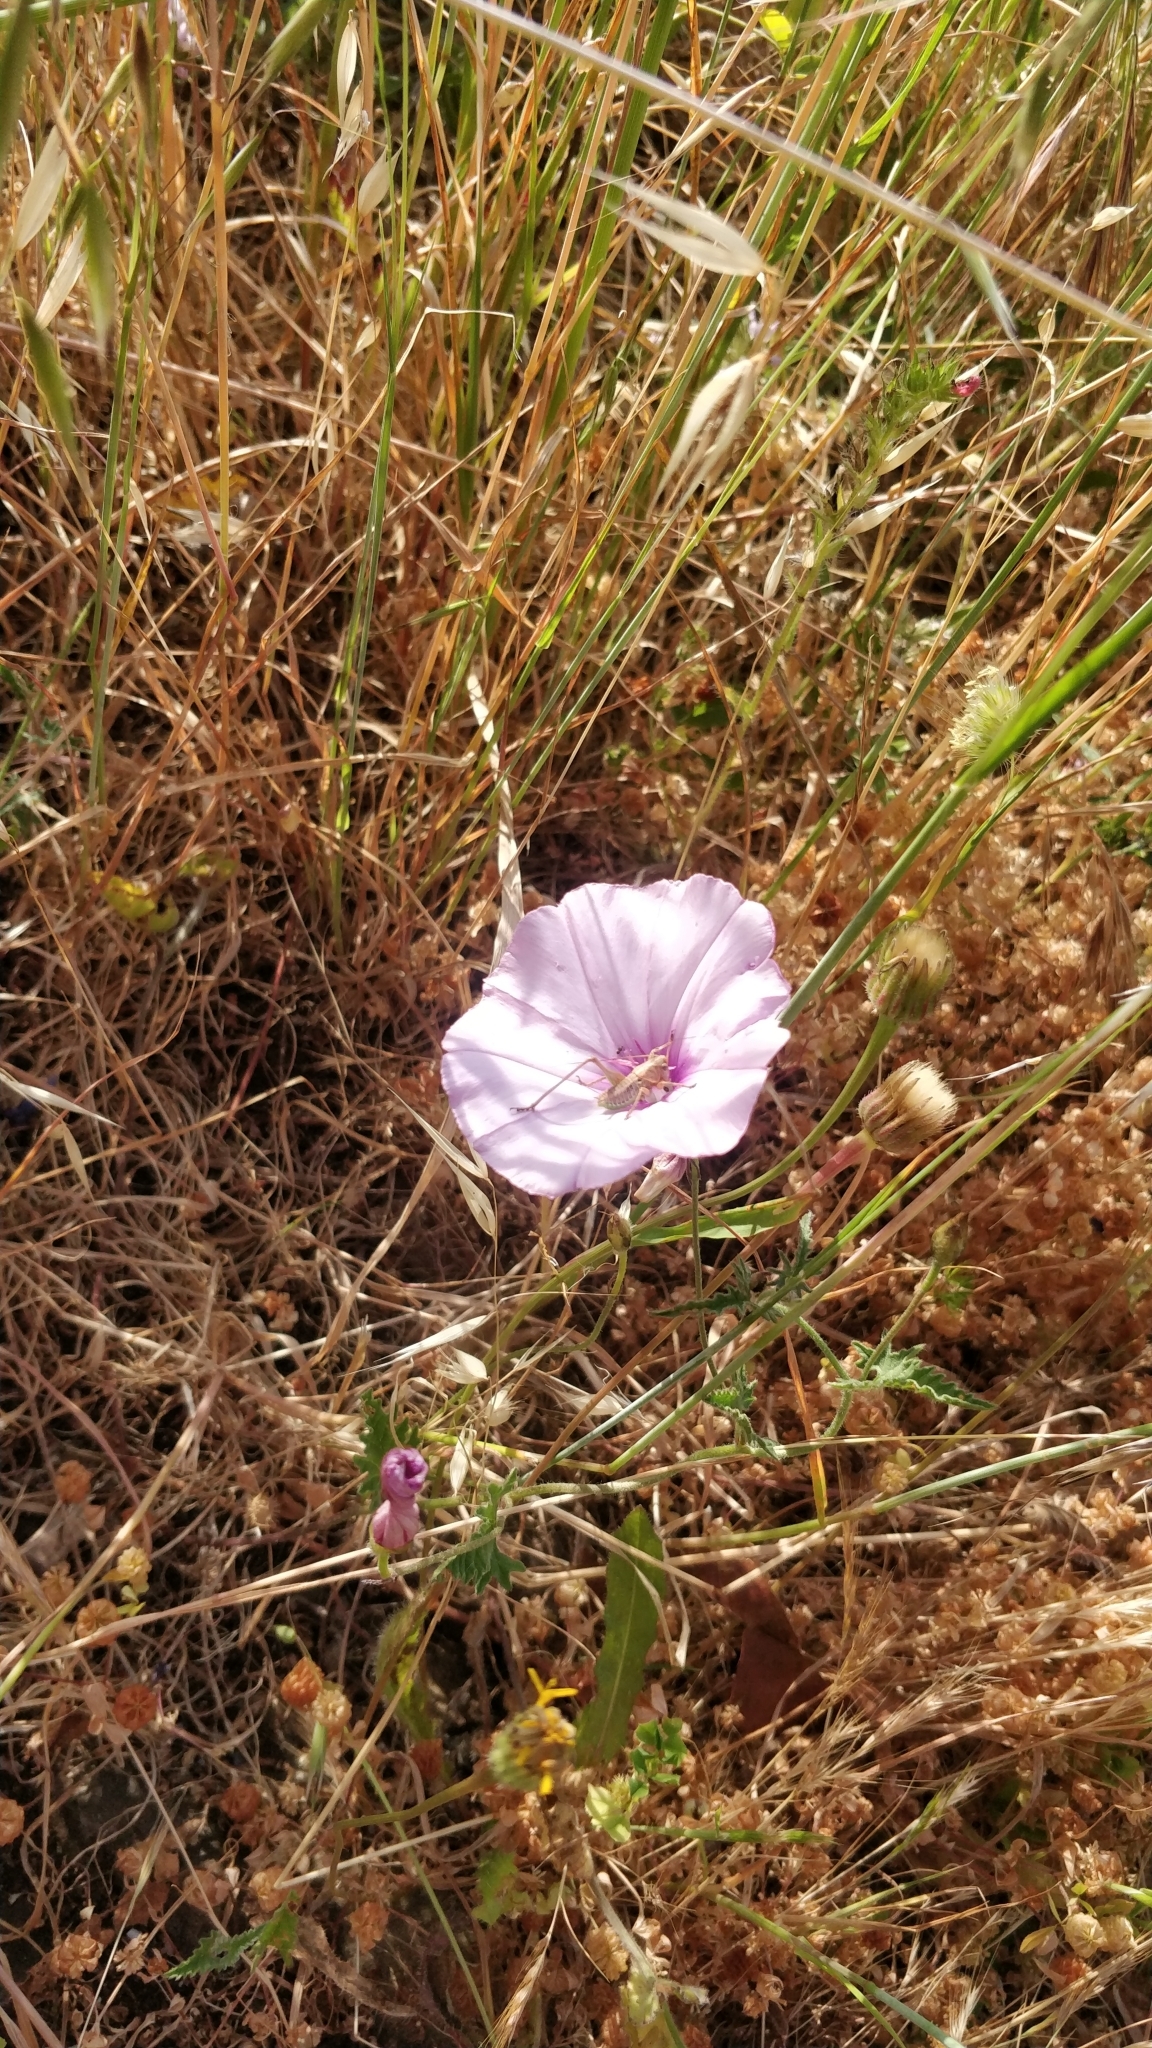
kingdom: Animalia
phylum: Arthropoda
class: Insecta
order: Orthoptera
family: Tettigoniidae
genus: Decticus
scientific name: Decticus albifrons
